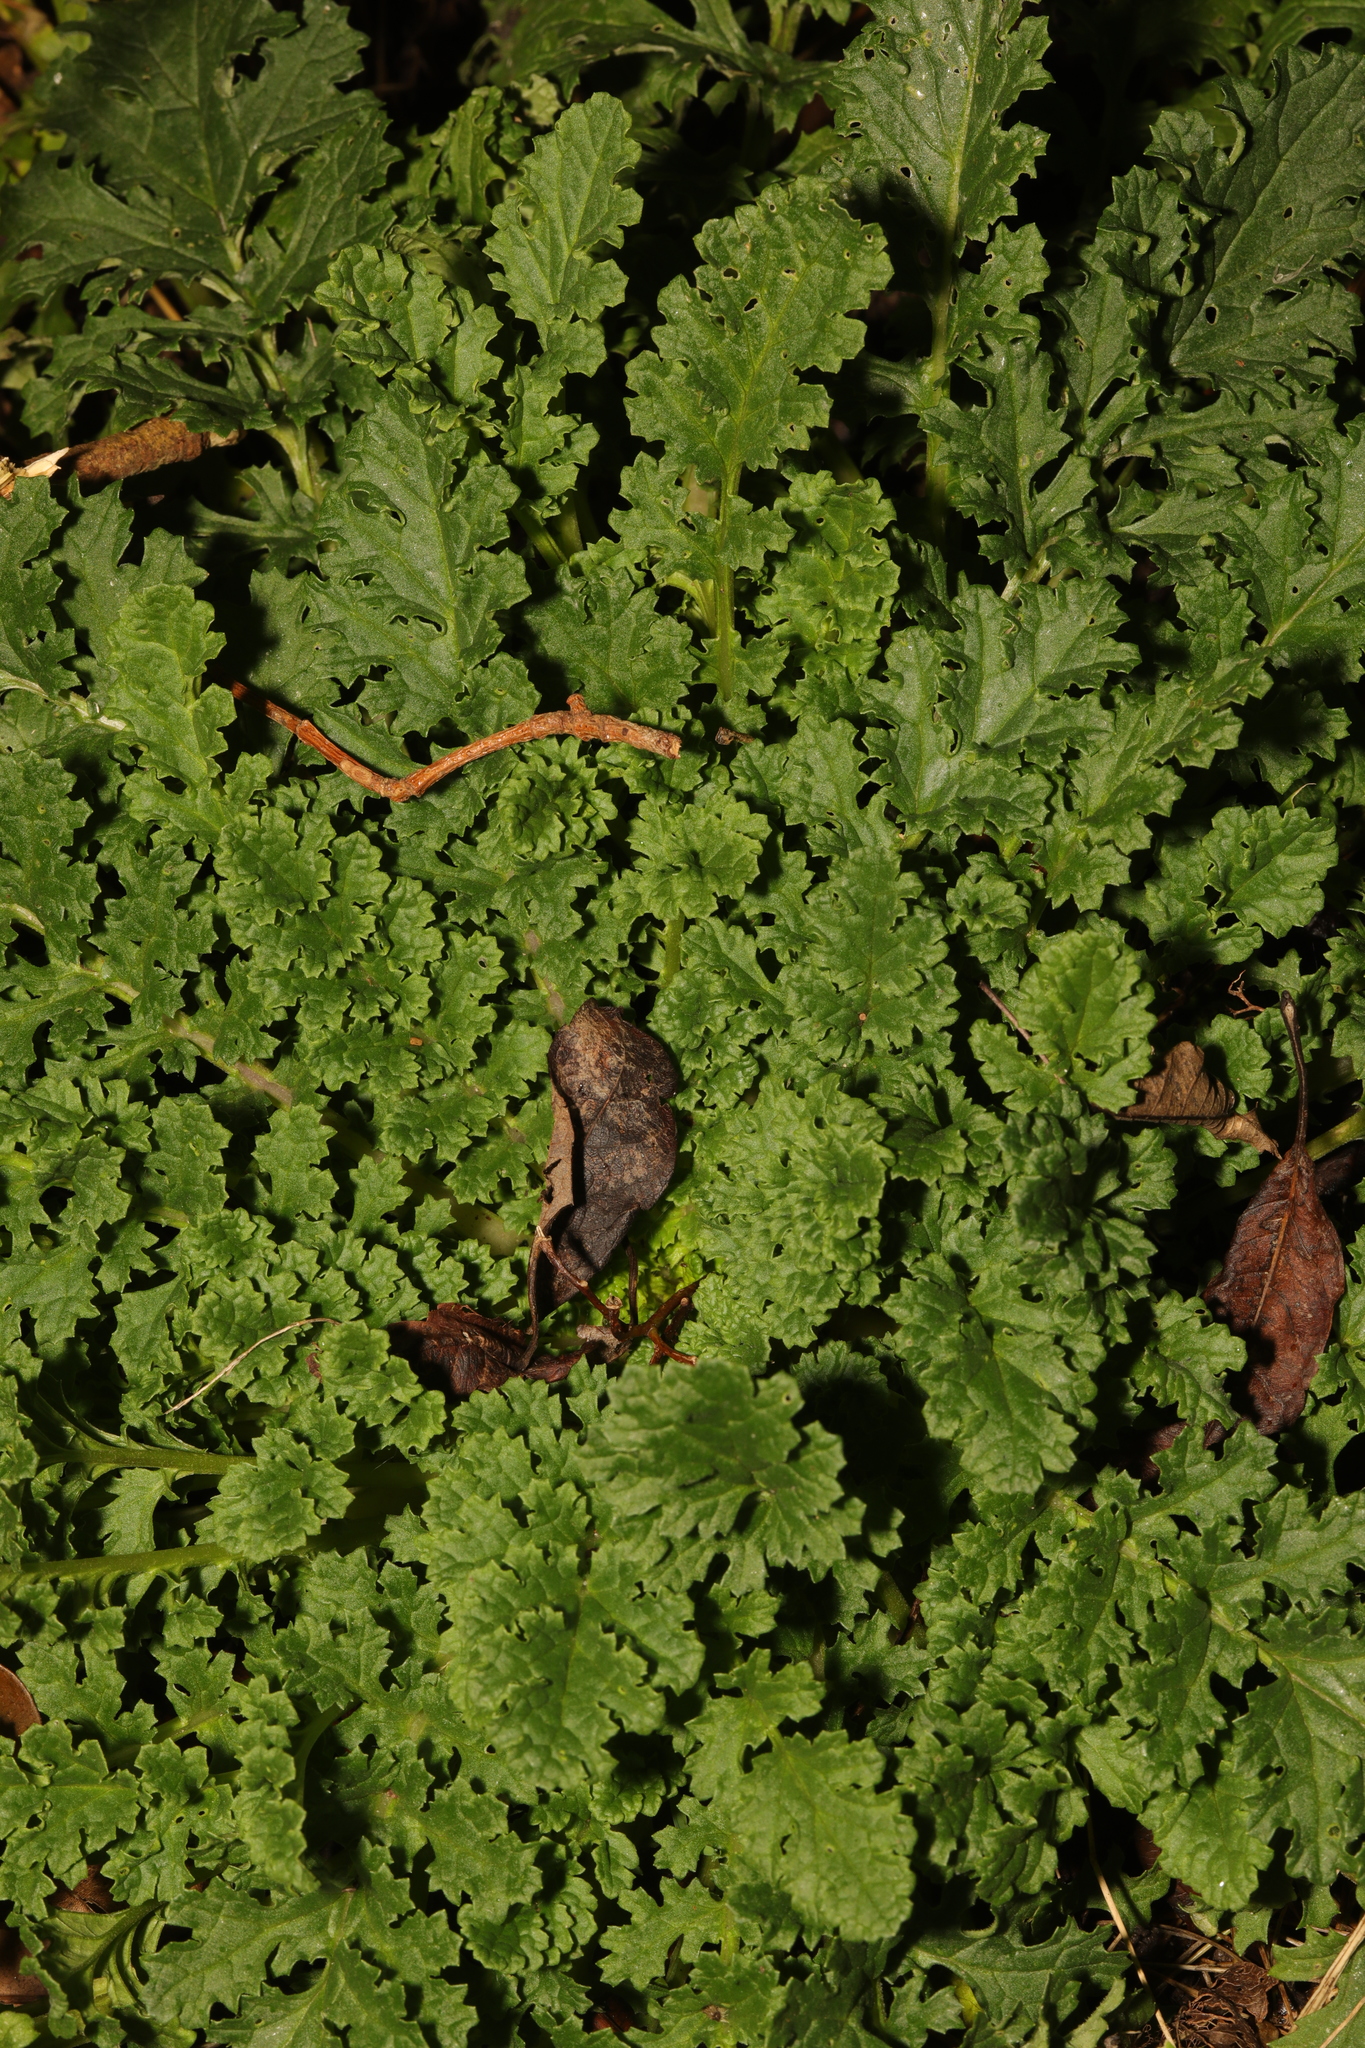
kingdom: Plantae
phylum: Tracheophyta
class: Magnoliopsida
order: Asterales
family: Asteraceae
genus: Jacobaea
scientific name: Jacobaea vulgaris
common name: Stinking willie
